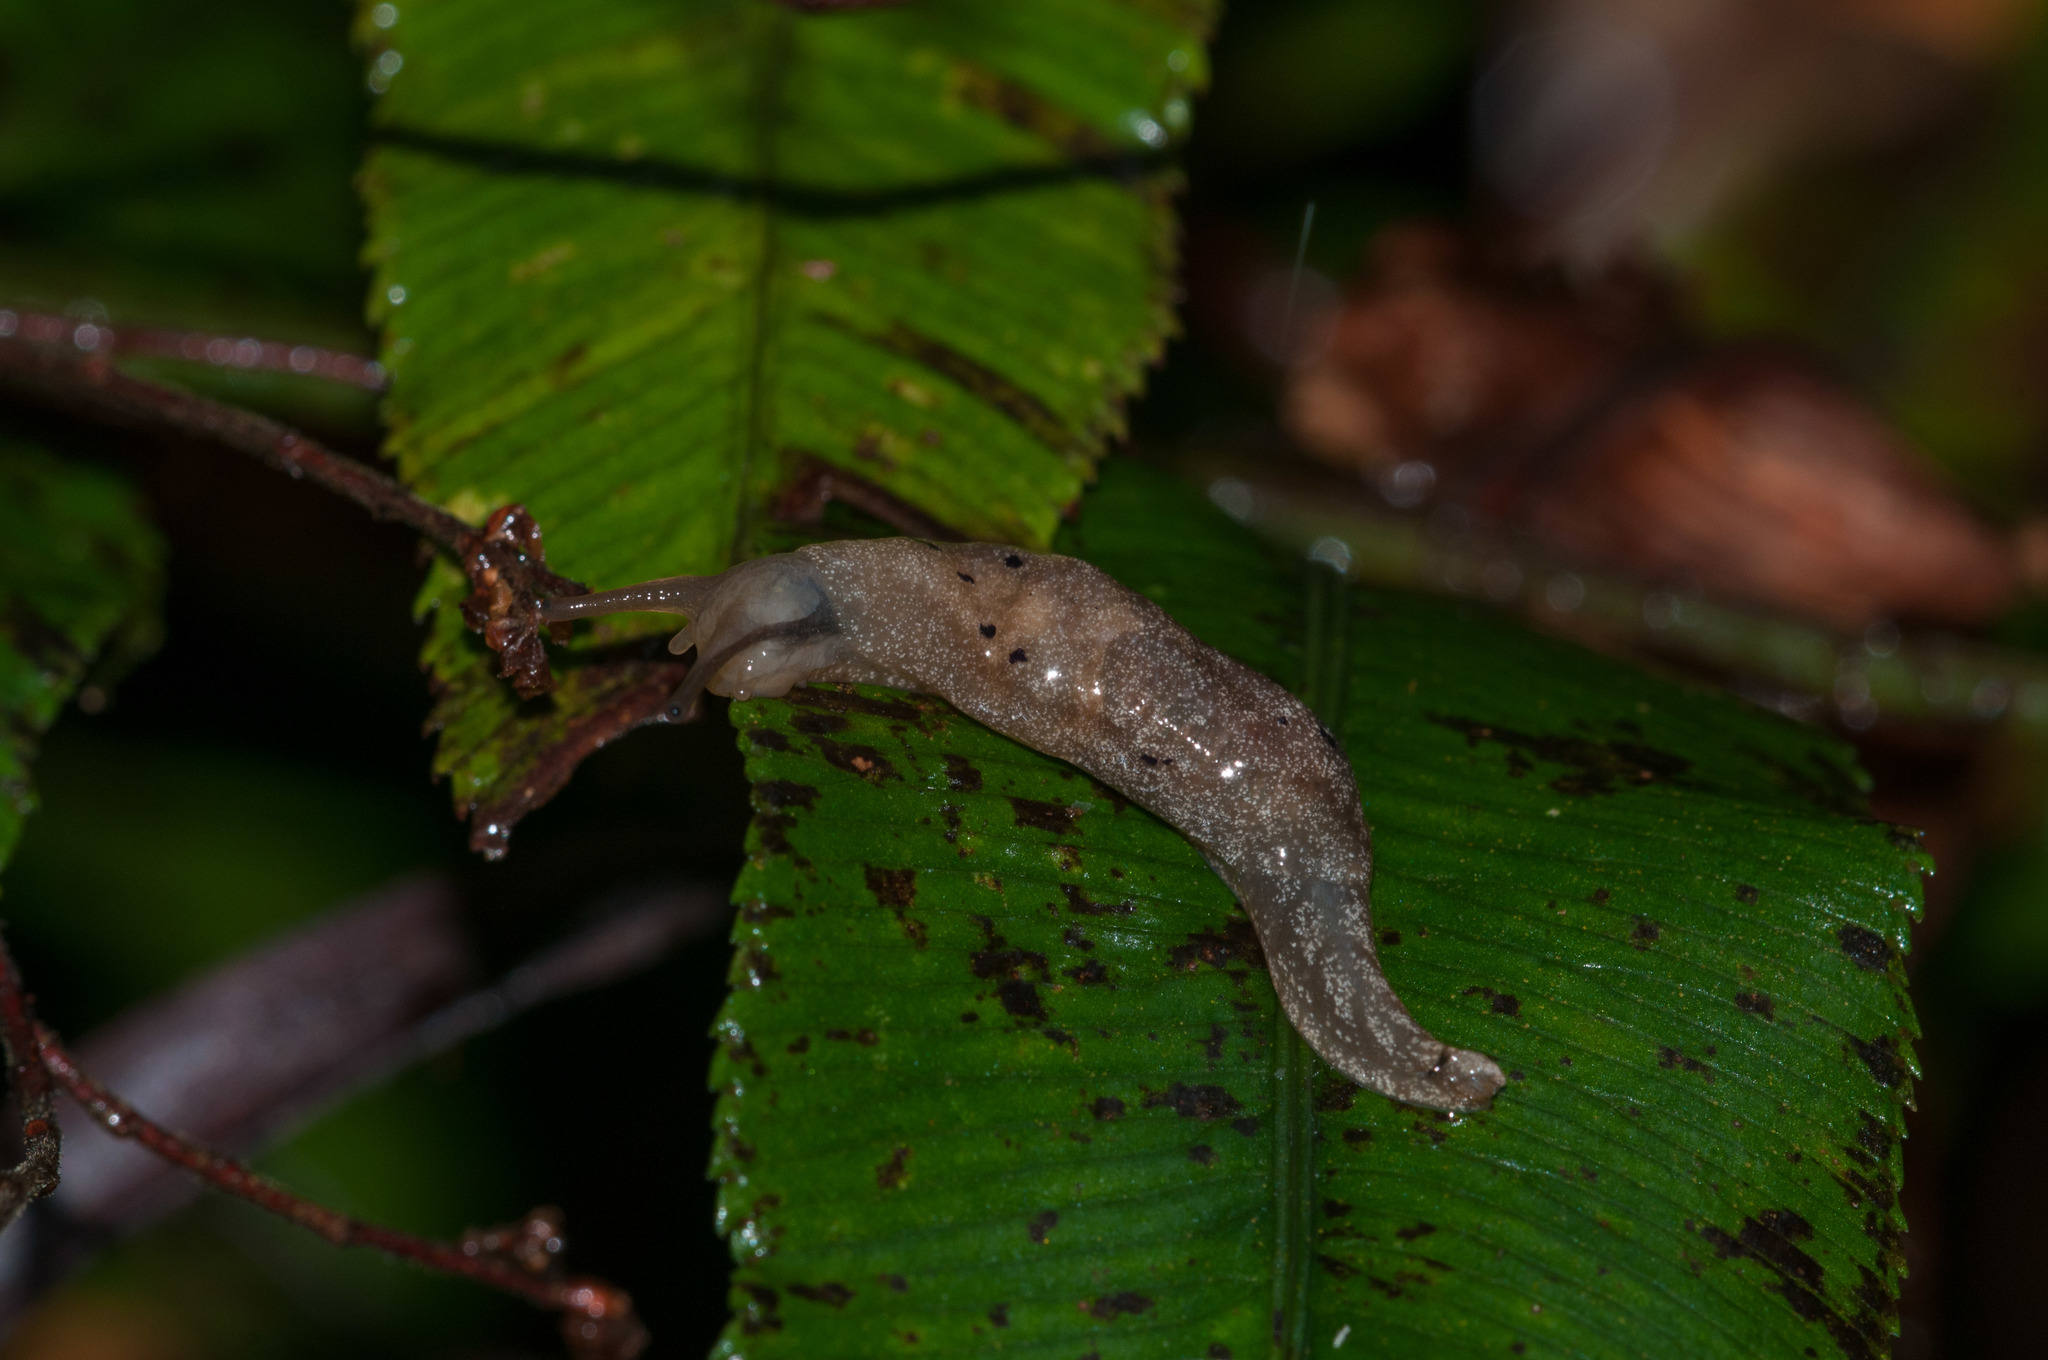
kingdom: Animalia
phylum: Mollusca
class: Gastropoda
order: Stylommatophora
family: Cystopeltidae
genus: Cystopelta
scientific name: Cystopelta purpurea
